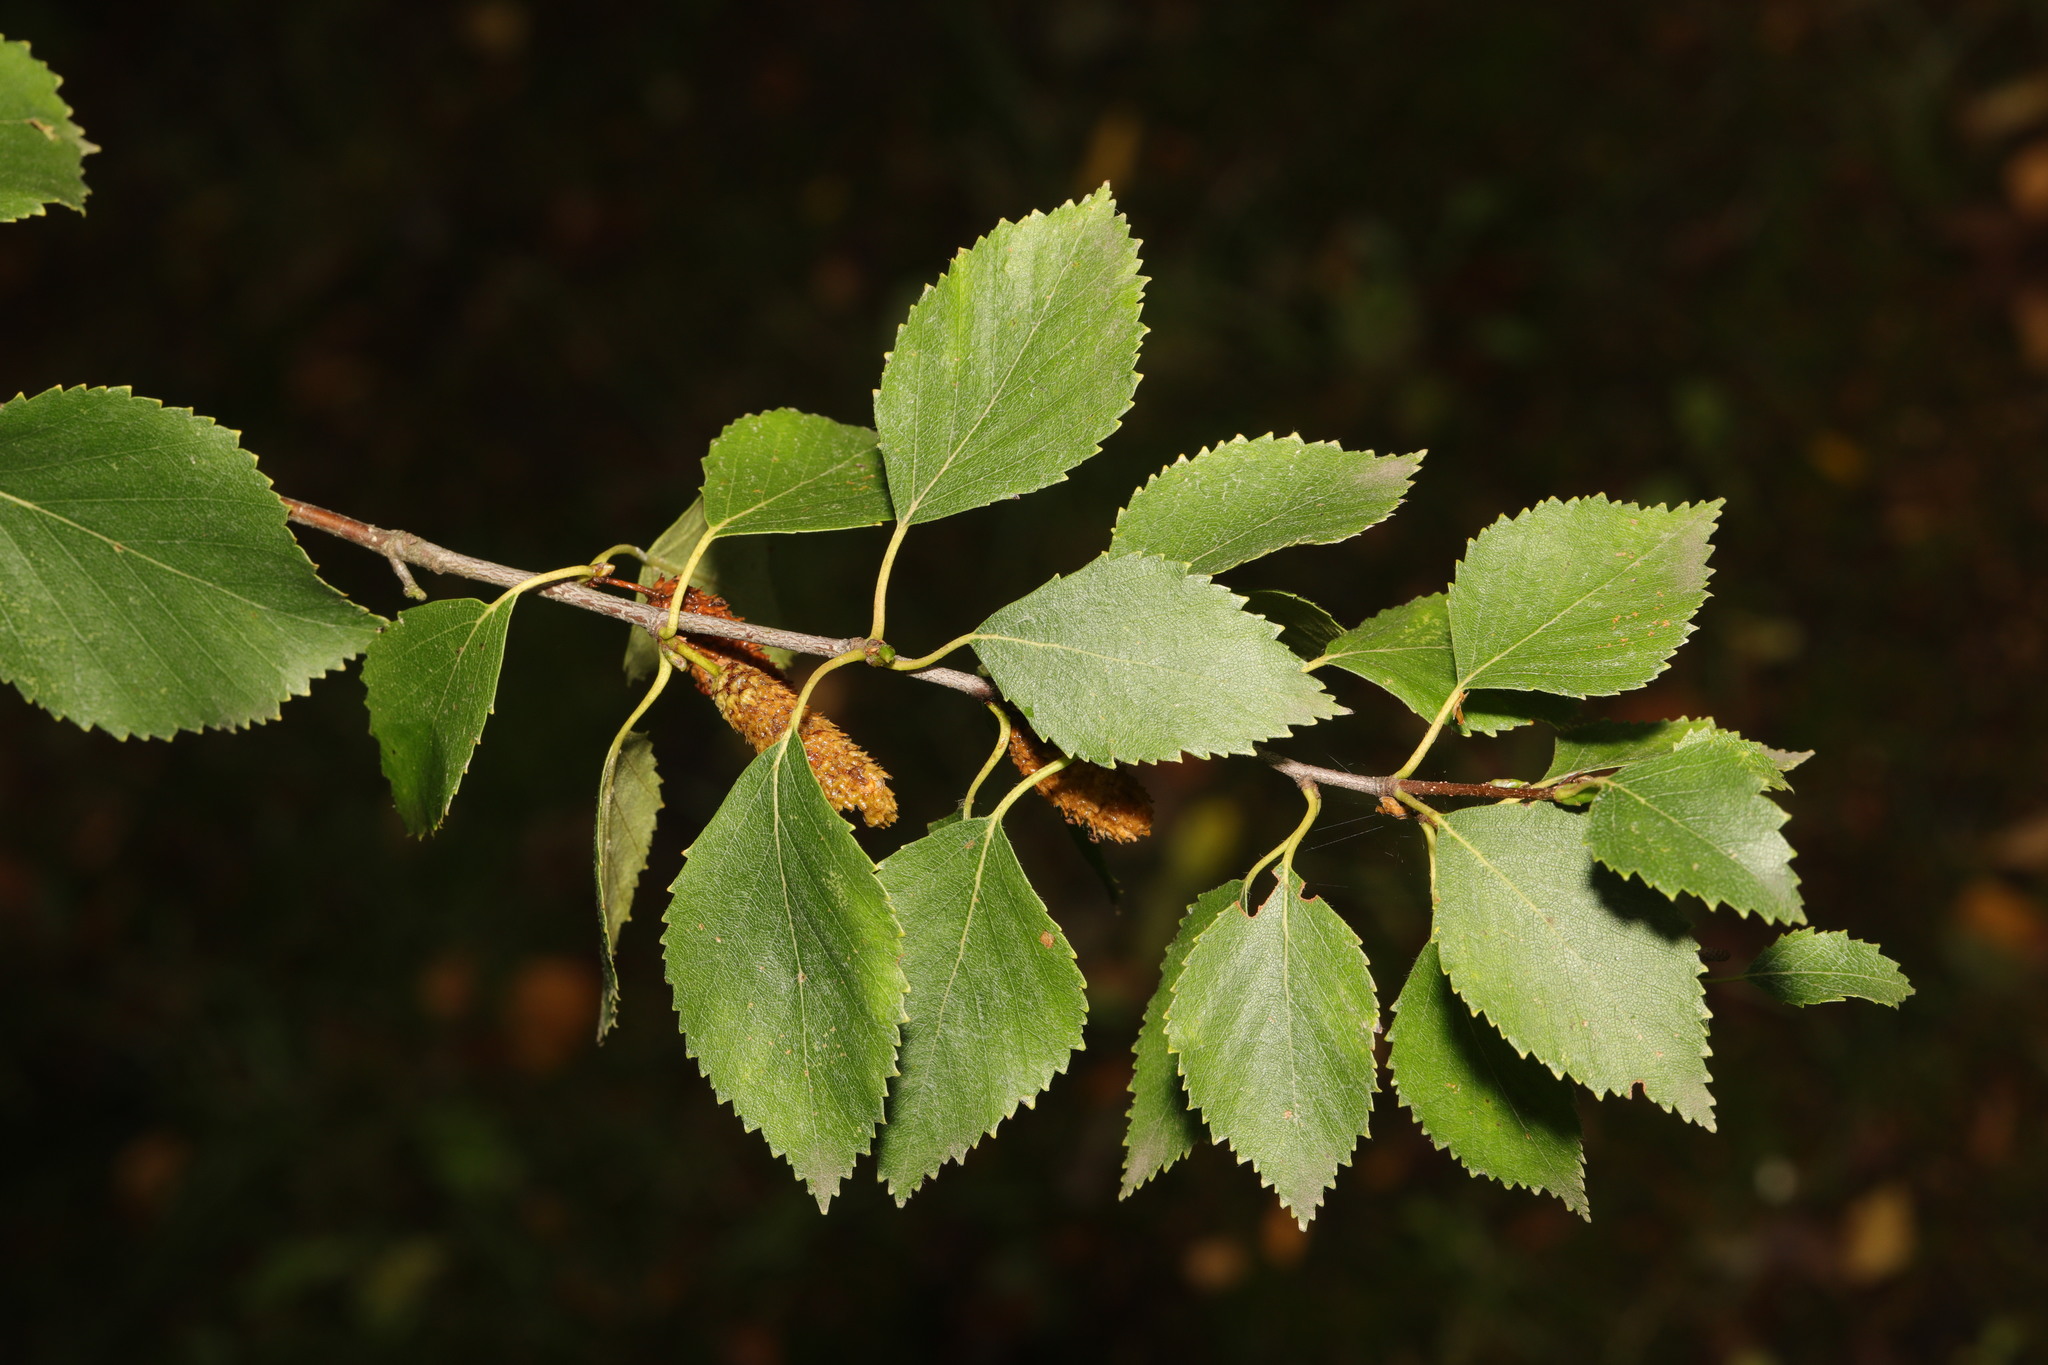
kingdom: Plantae
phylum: Tracheophyta
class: Magnoliopsida
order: Fagales
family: Betulaceae
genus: Betula
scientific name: Betula pubescens
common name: Downy birch
